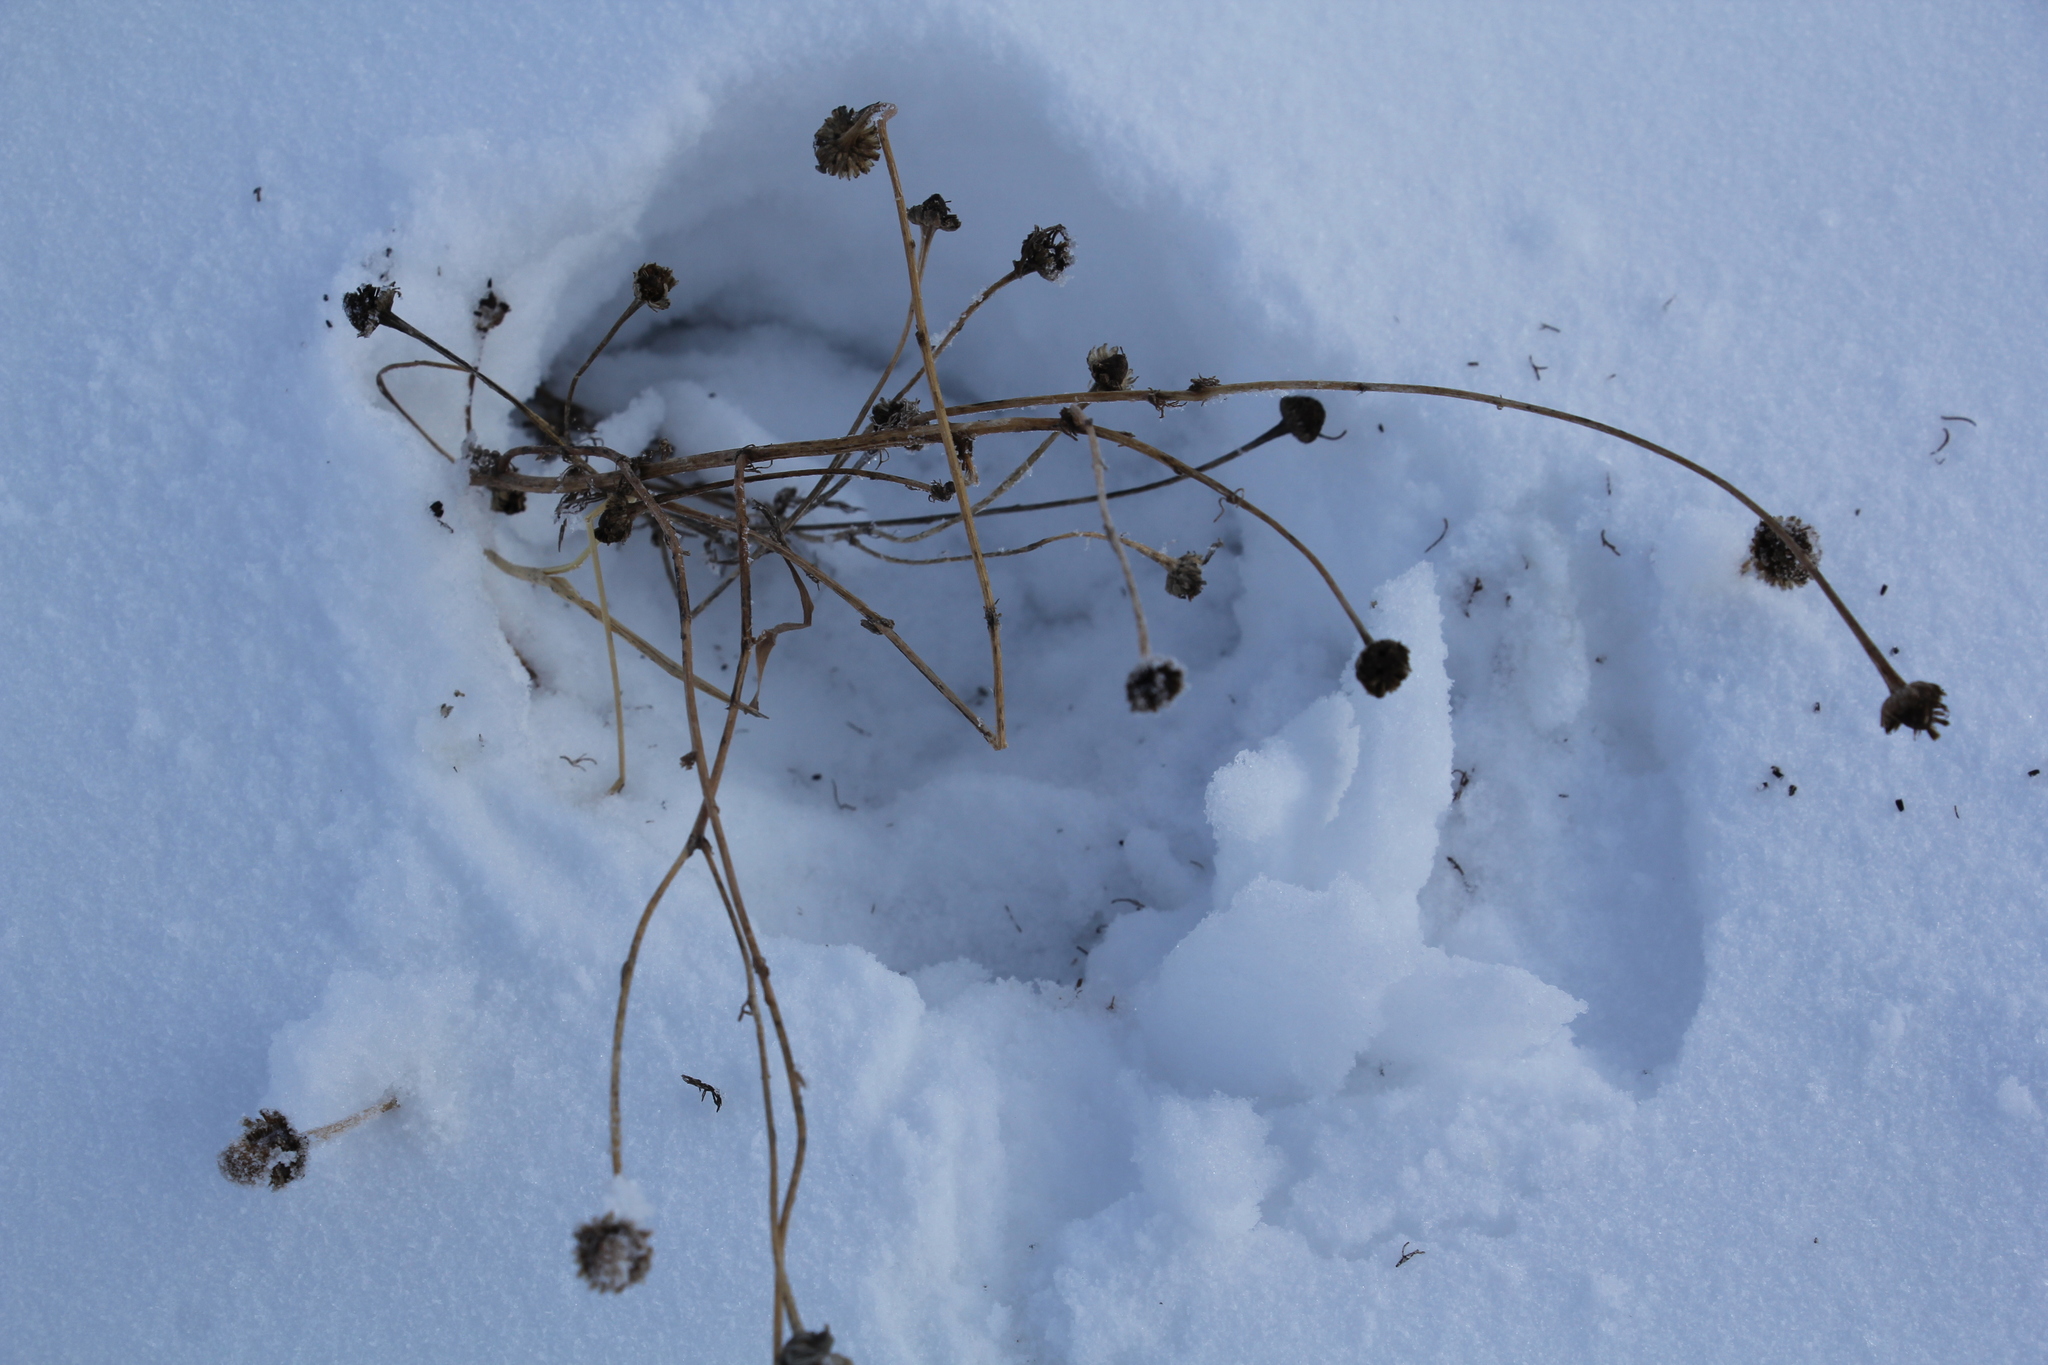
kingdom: Plantae
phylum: Tracheophyta
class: Magnoliopsida
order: Asterales
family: Asteraceae
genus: Tripleurospermum
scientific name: Tripleurospermum inodorum
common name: Scentless mayweed
